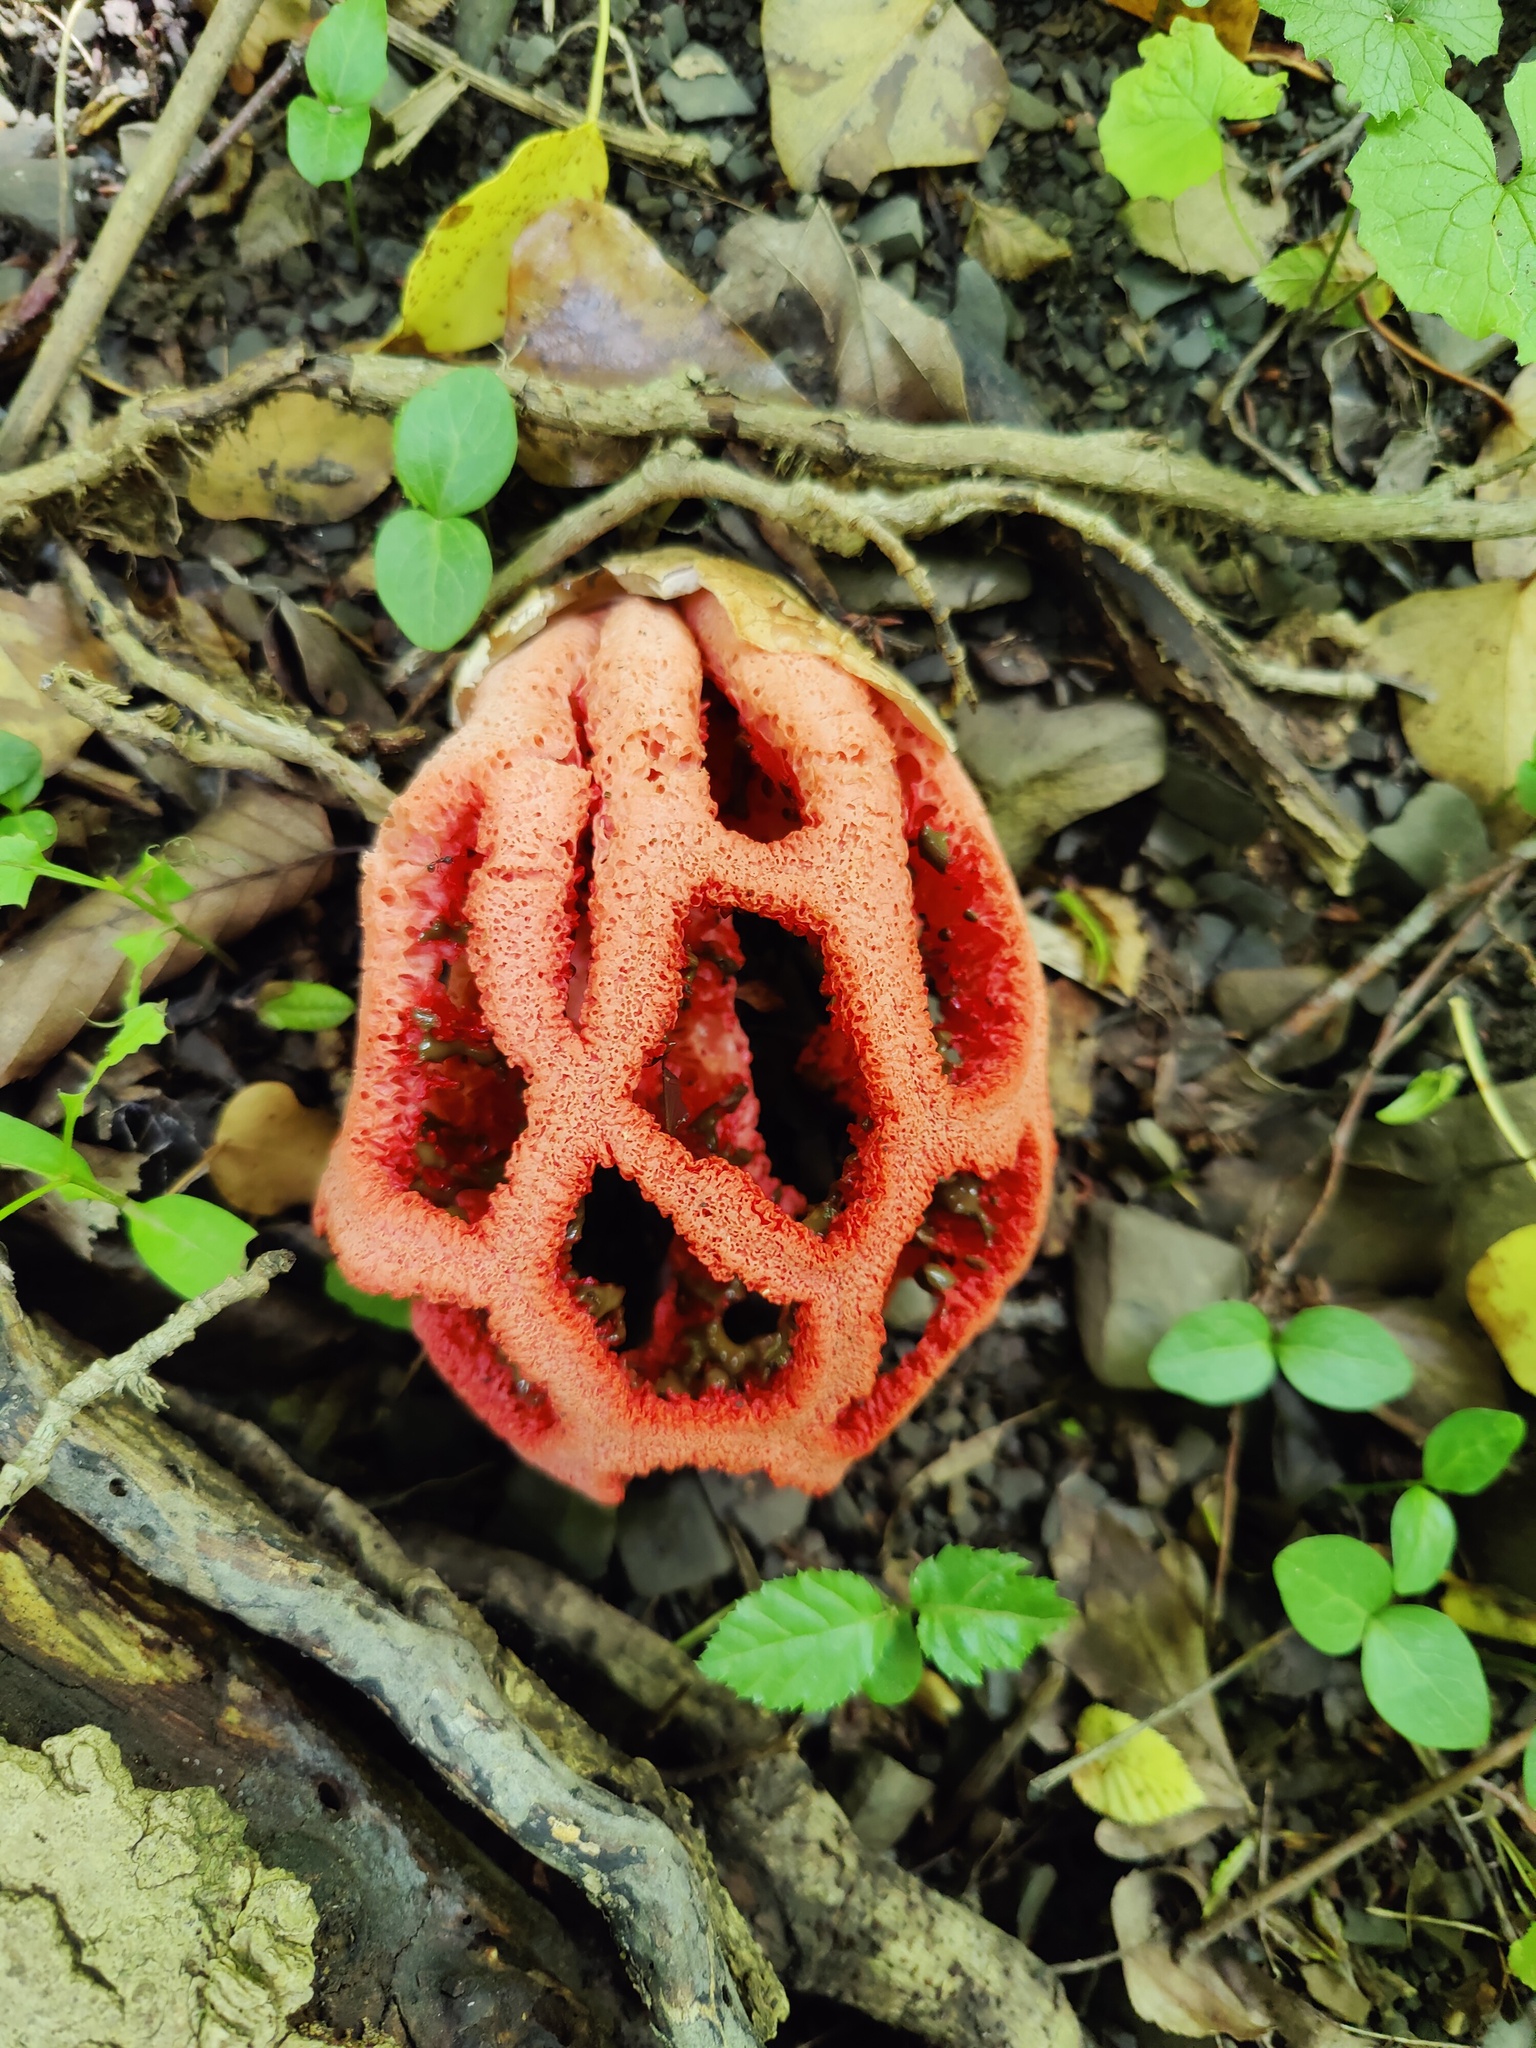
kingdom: Fungi
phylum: Basidiomycota
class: Agaricomycetes
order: Phallales
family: Phallaceae
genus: Clathrus
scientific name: Clathrus ruber
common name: Red cage
